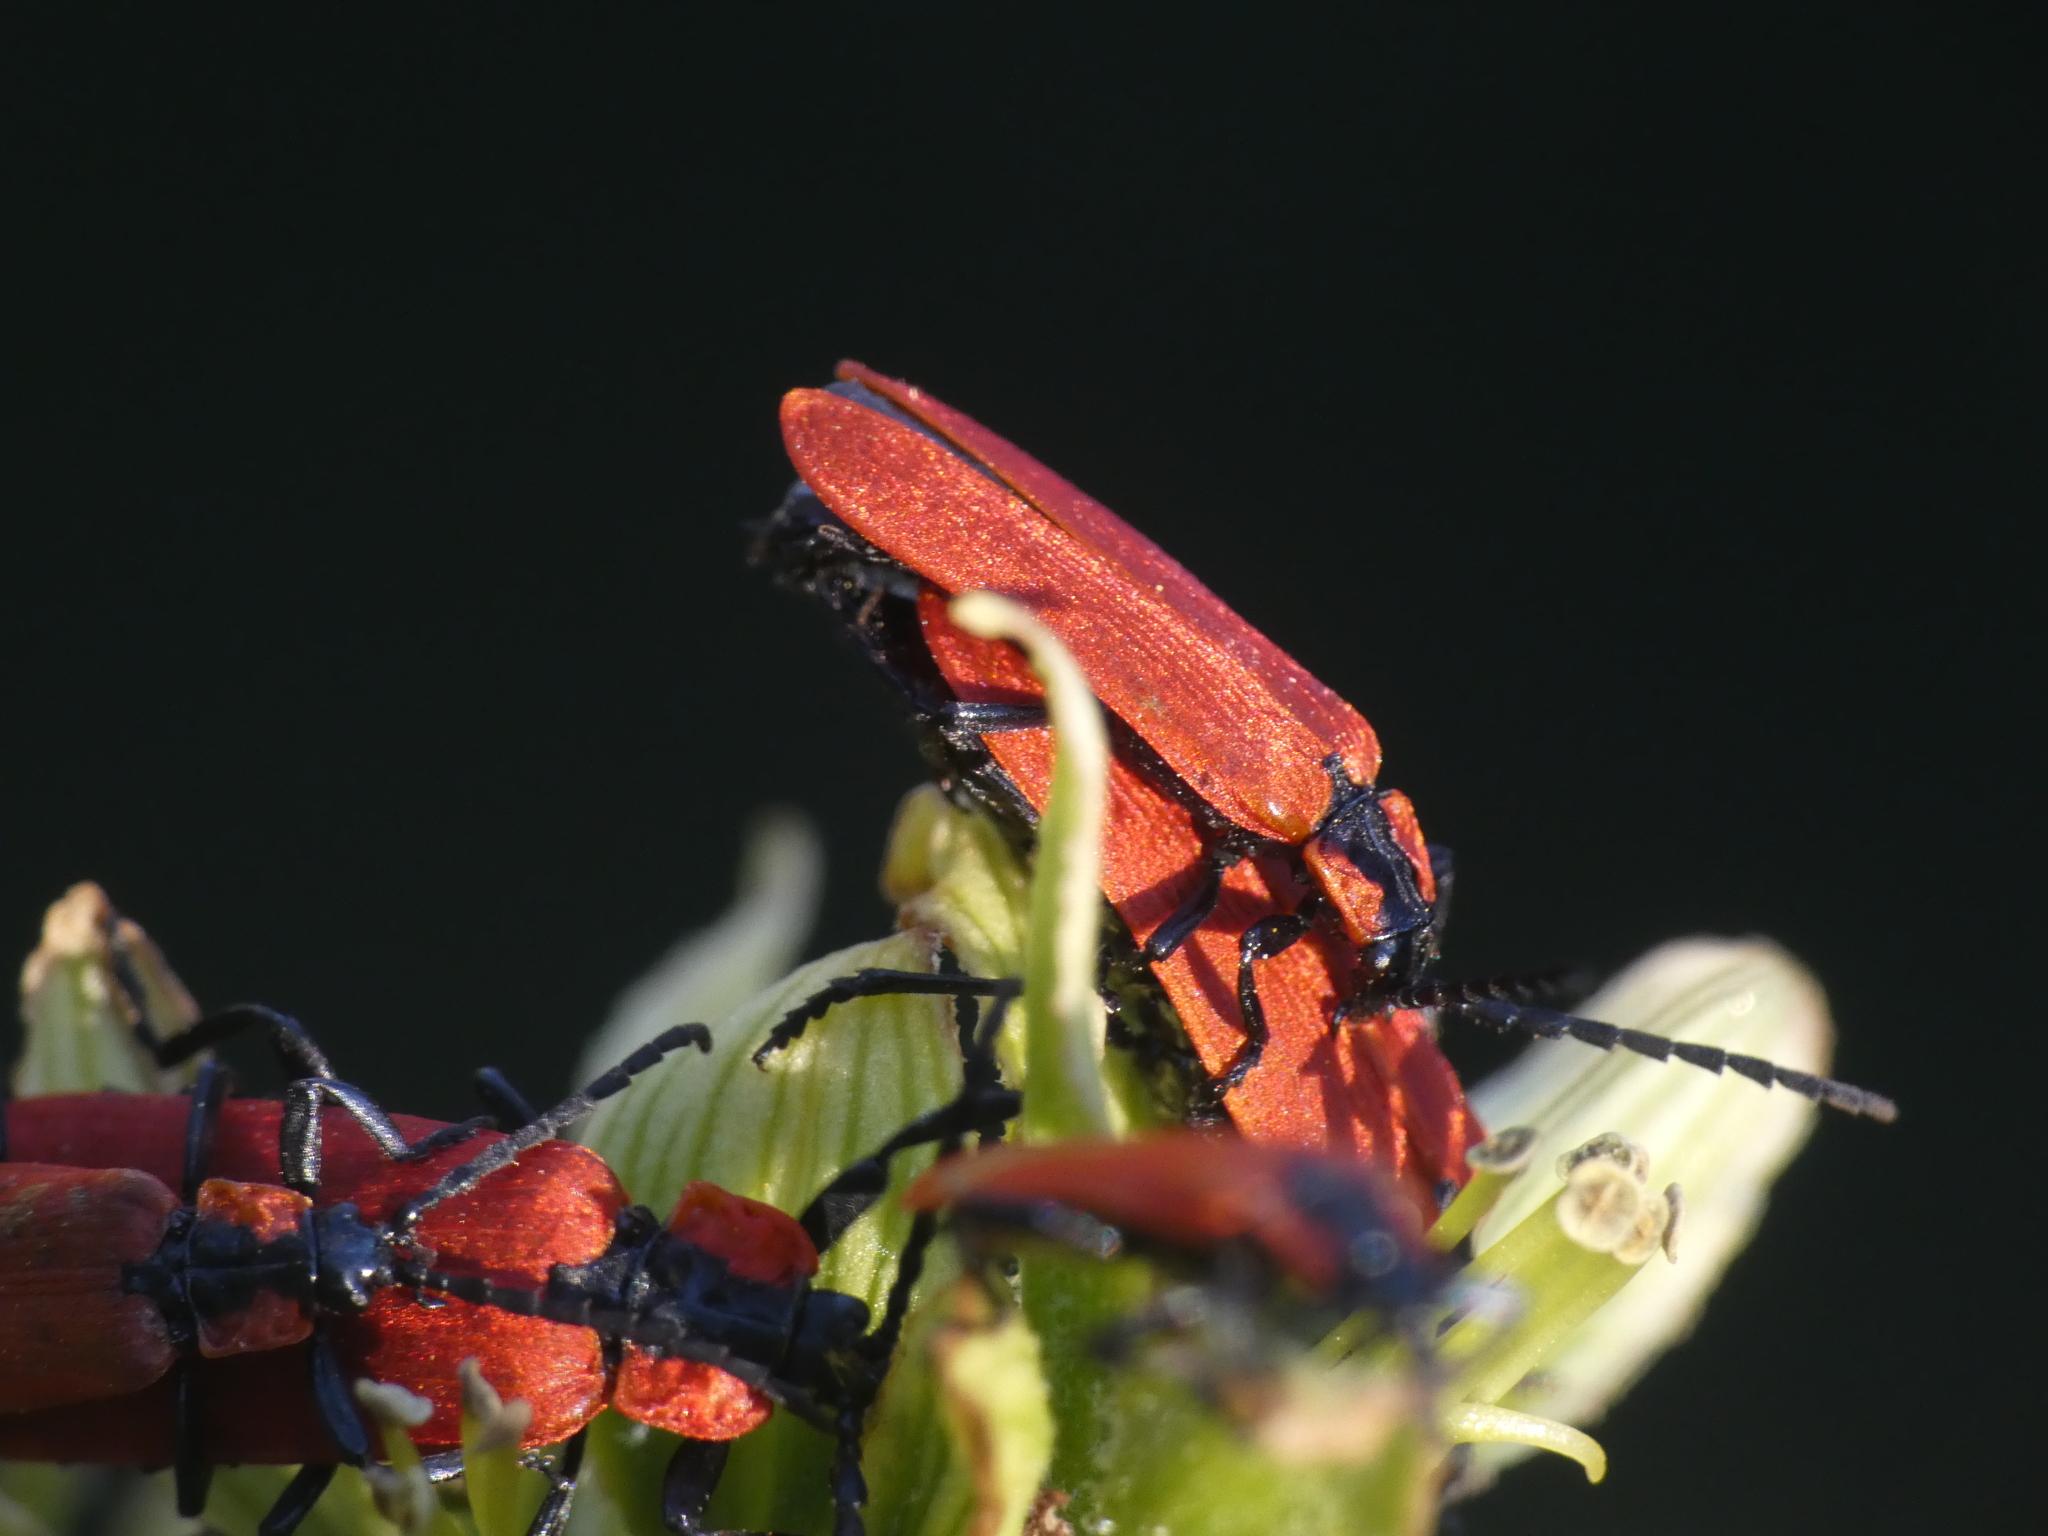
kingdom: Animalia
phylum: Arthropoda
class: Insecta
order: Coleoptera
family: Lycidae
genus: Lygistopterus
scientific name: Lygistopterus sanguineus
